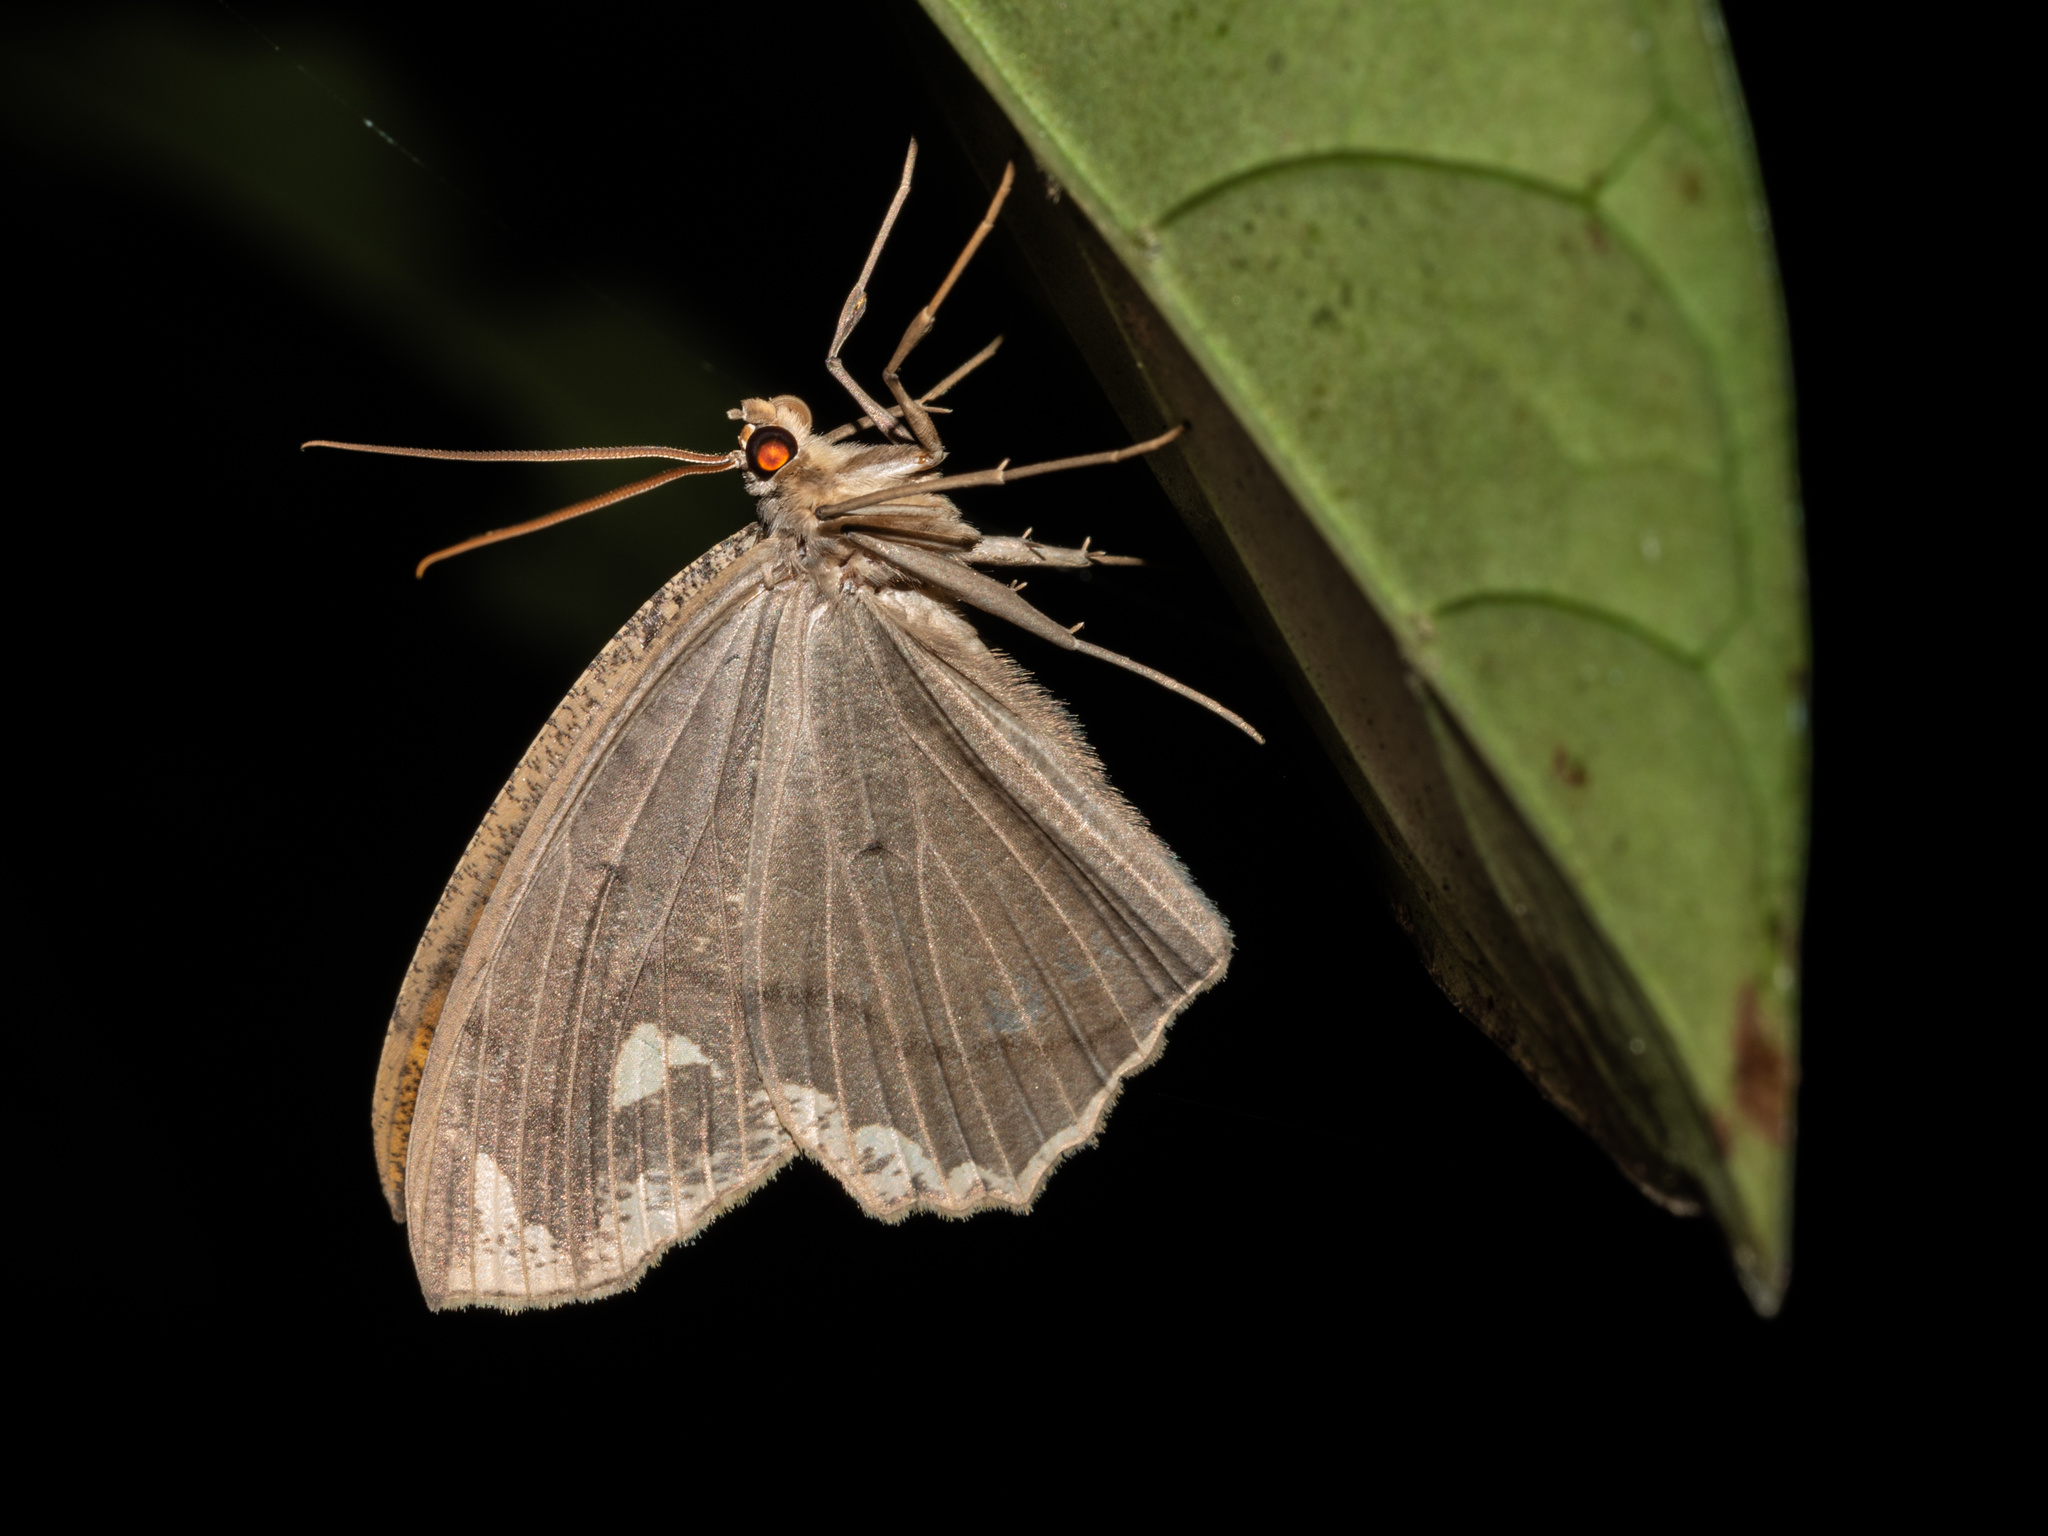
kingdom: Animalia
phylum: Arthropoda
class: Insecta
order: Lepidoptera
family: Geometridae
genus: Pareumelea
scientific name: Pareumelea eugeniata
